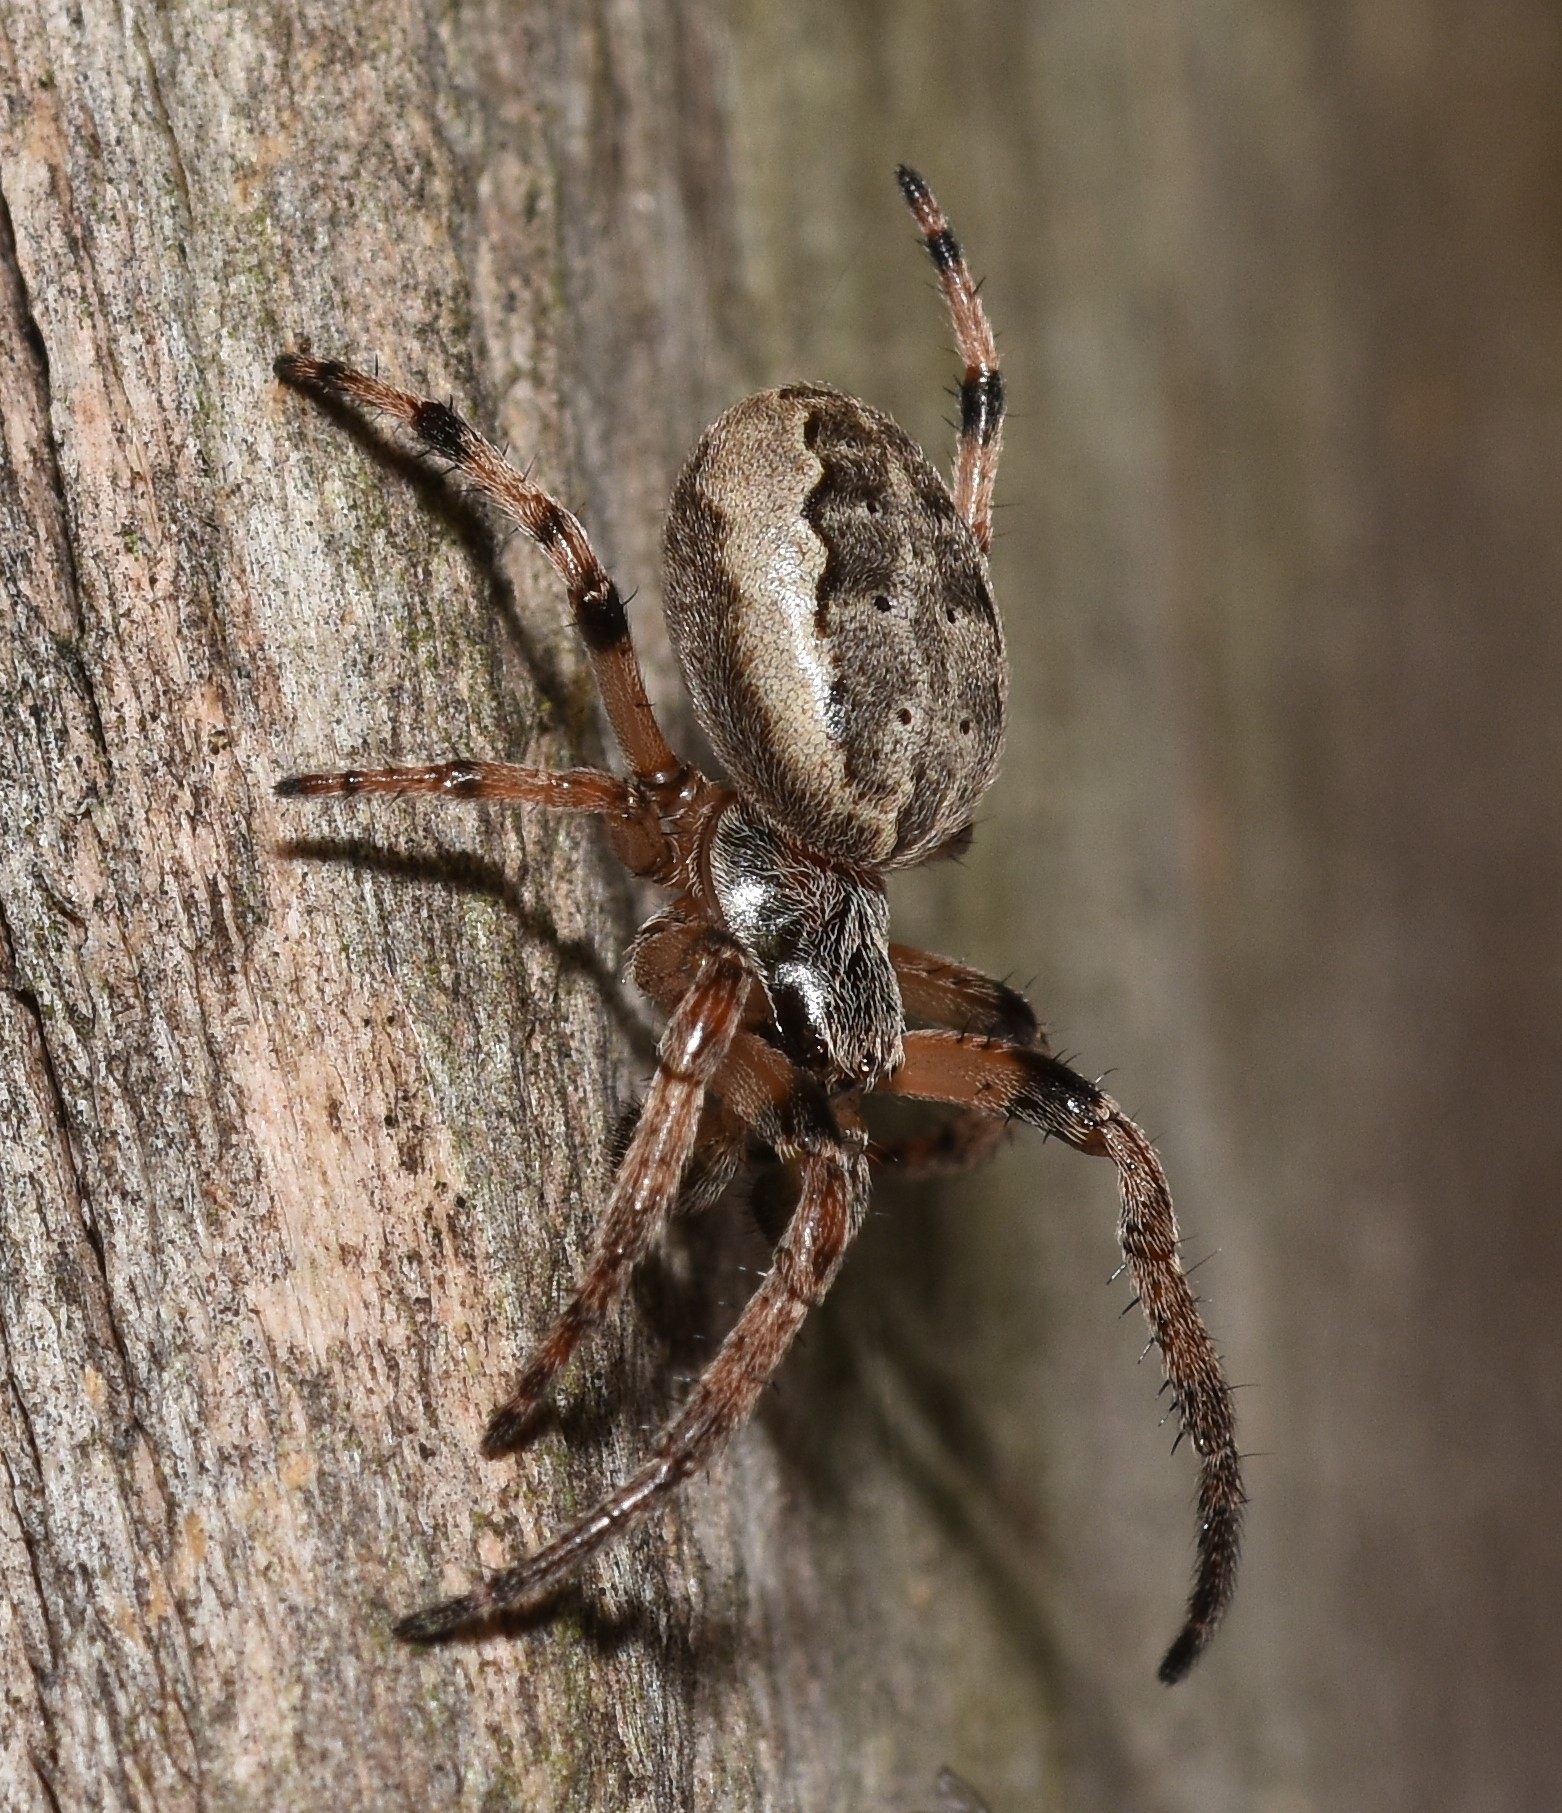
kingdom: Animalia
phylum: Arthropoda
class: Arachnida
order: Araneae
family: Araneidae
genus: Larinioides
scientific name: Larinioides cornutus
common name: Furrow orbweaver
